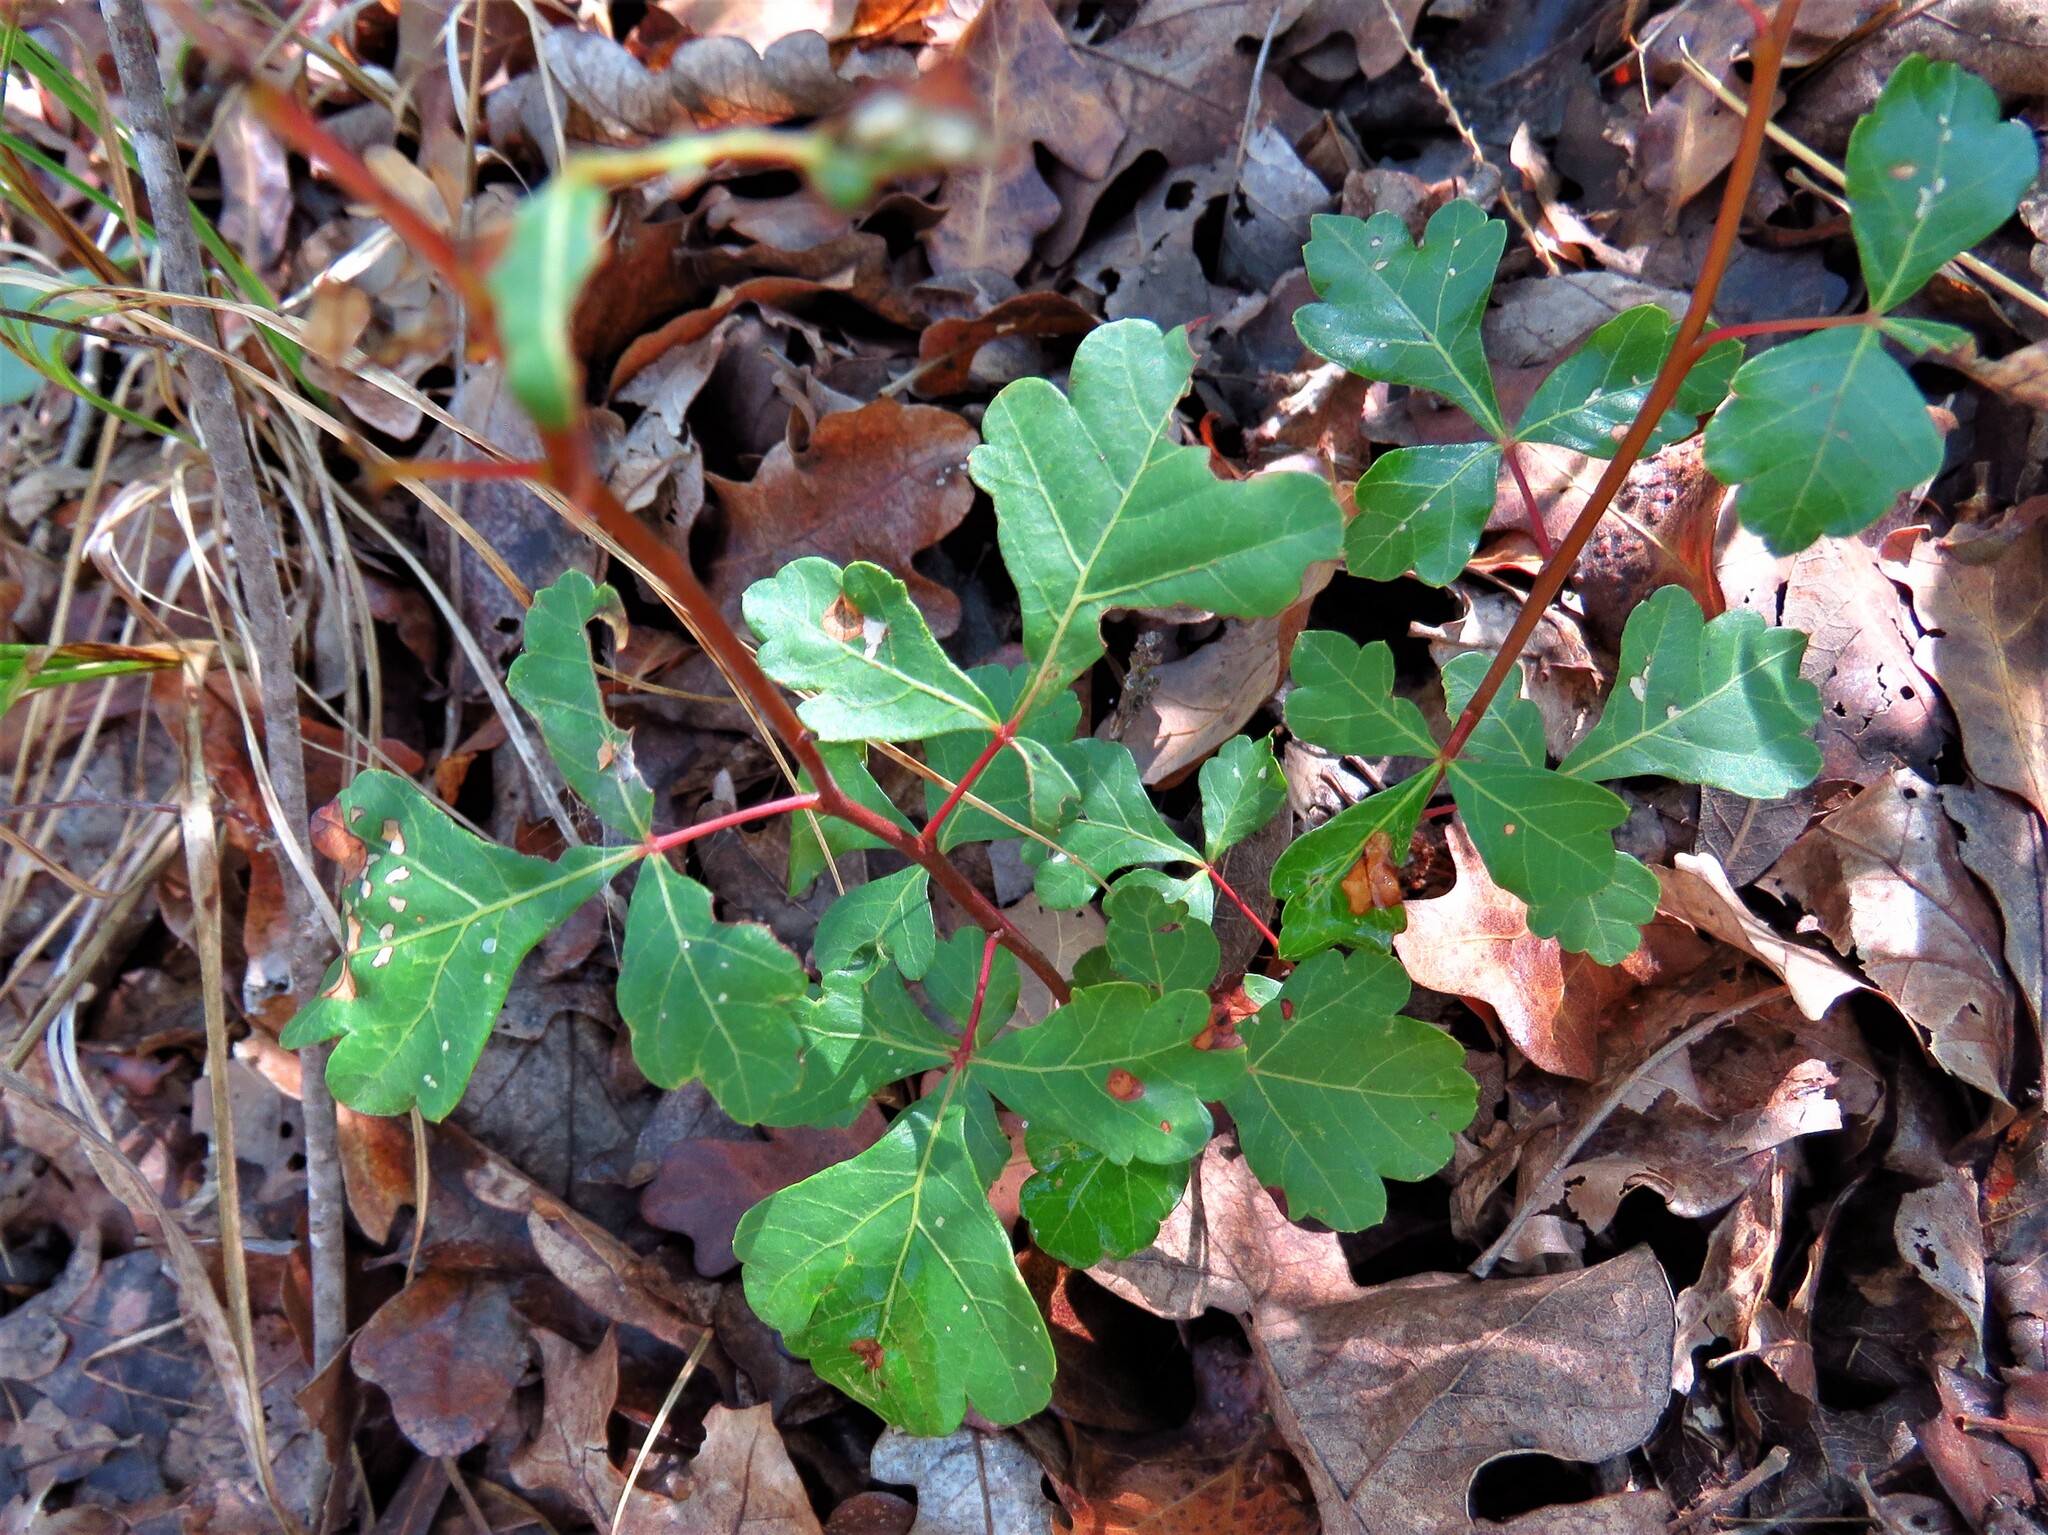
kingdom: Plantae
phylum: Tracheophyta
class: Magnoliopsida
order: Sapindales
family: Anacardiaceae
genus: Rhus
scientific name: Rhus aromatica
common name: Aromatic sumac
